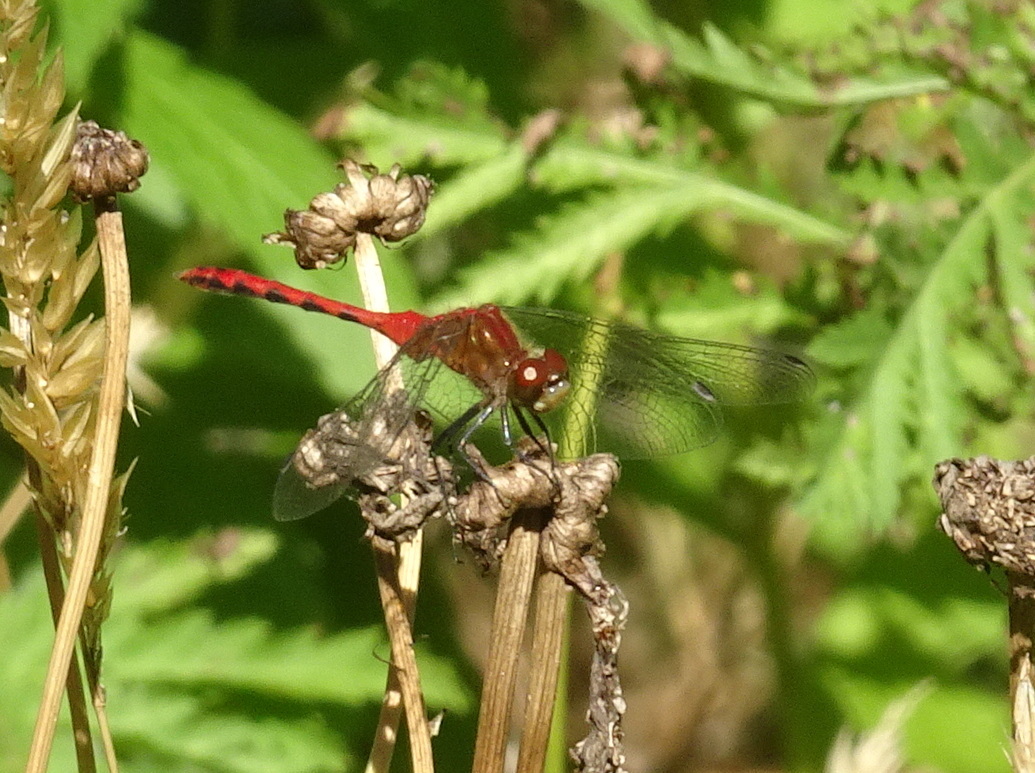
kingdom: Animalia
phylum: Arthropoda
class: Insecta
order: Odonata
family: Libellulidae
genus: Sympetrum
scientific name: Sympetrum obtrusum
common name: White-faced meadowhawk
